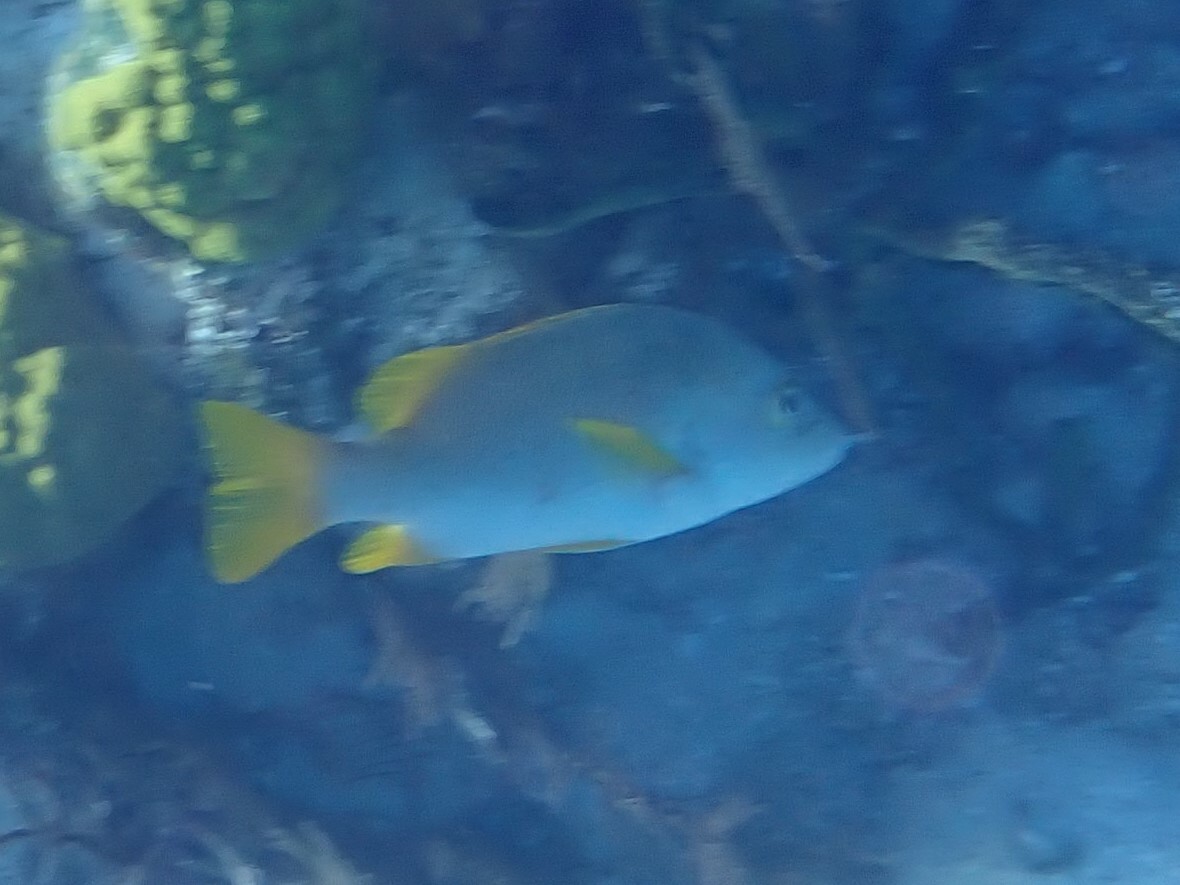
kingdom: Animalia
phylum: Chordata
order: Perciformes
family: Lutjanidae
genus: Lutjanus
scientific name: Lutjanus apodus
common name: Schoolmaster
